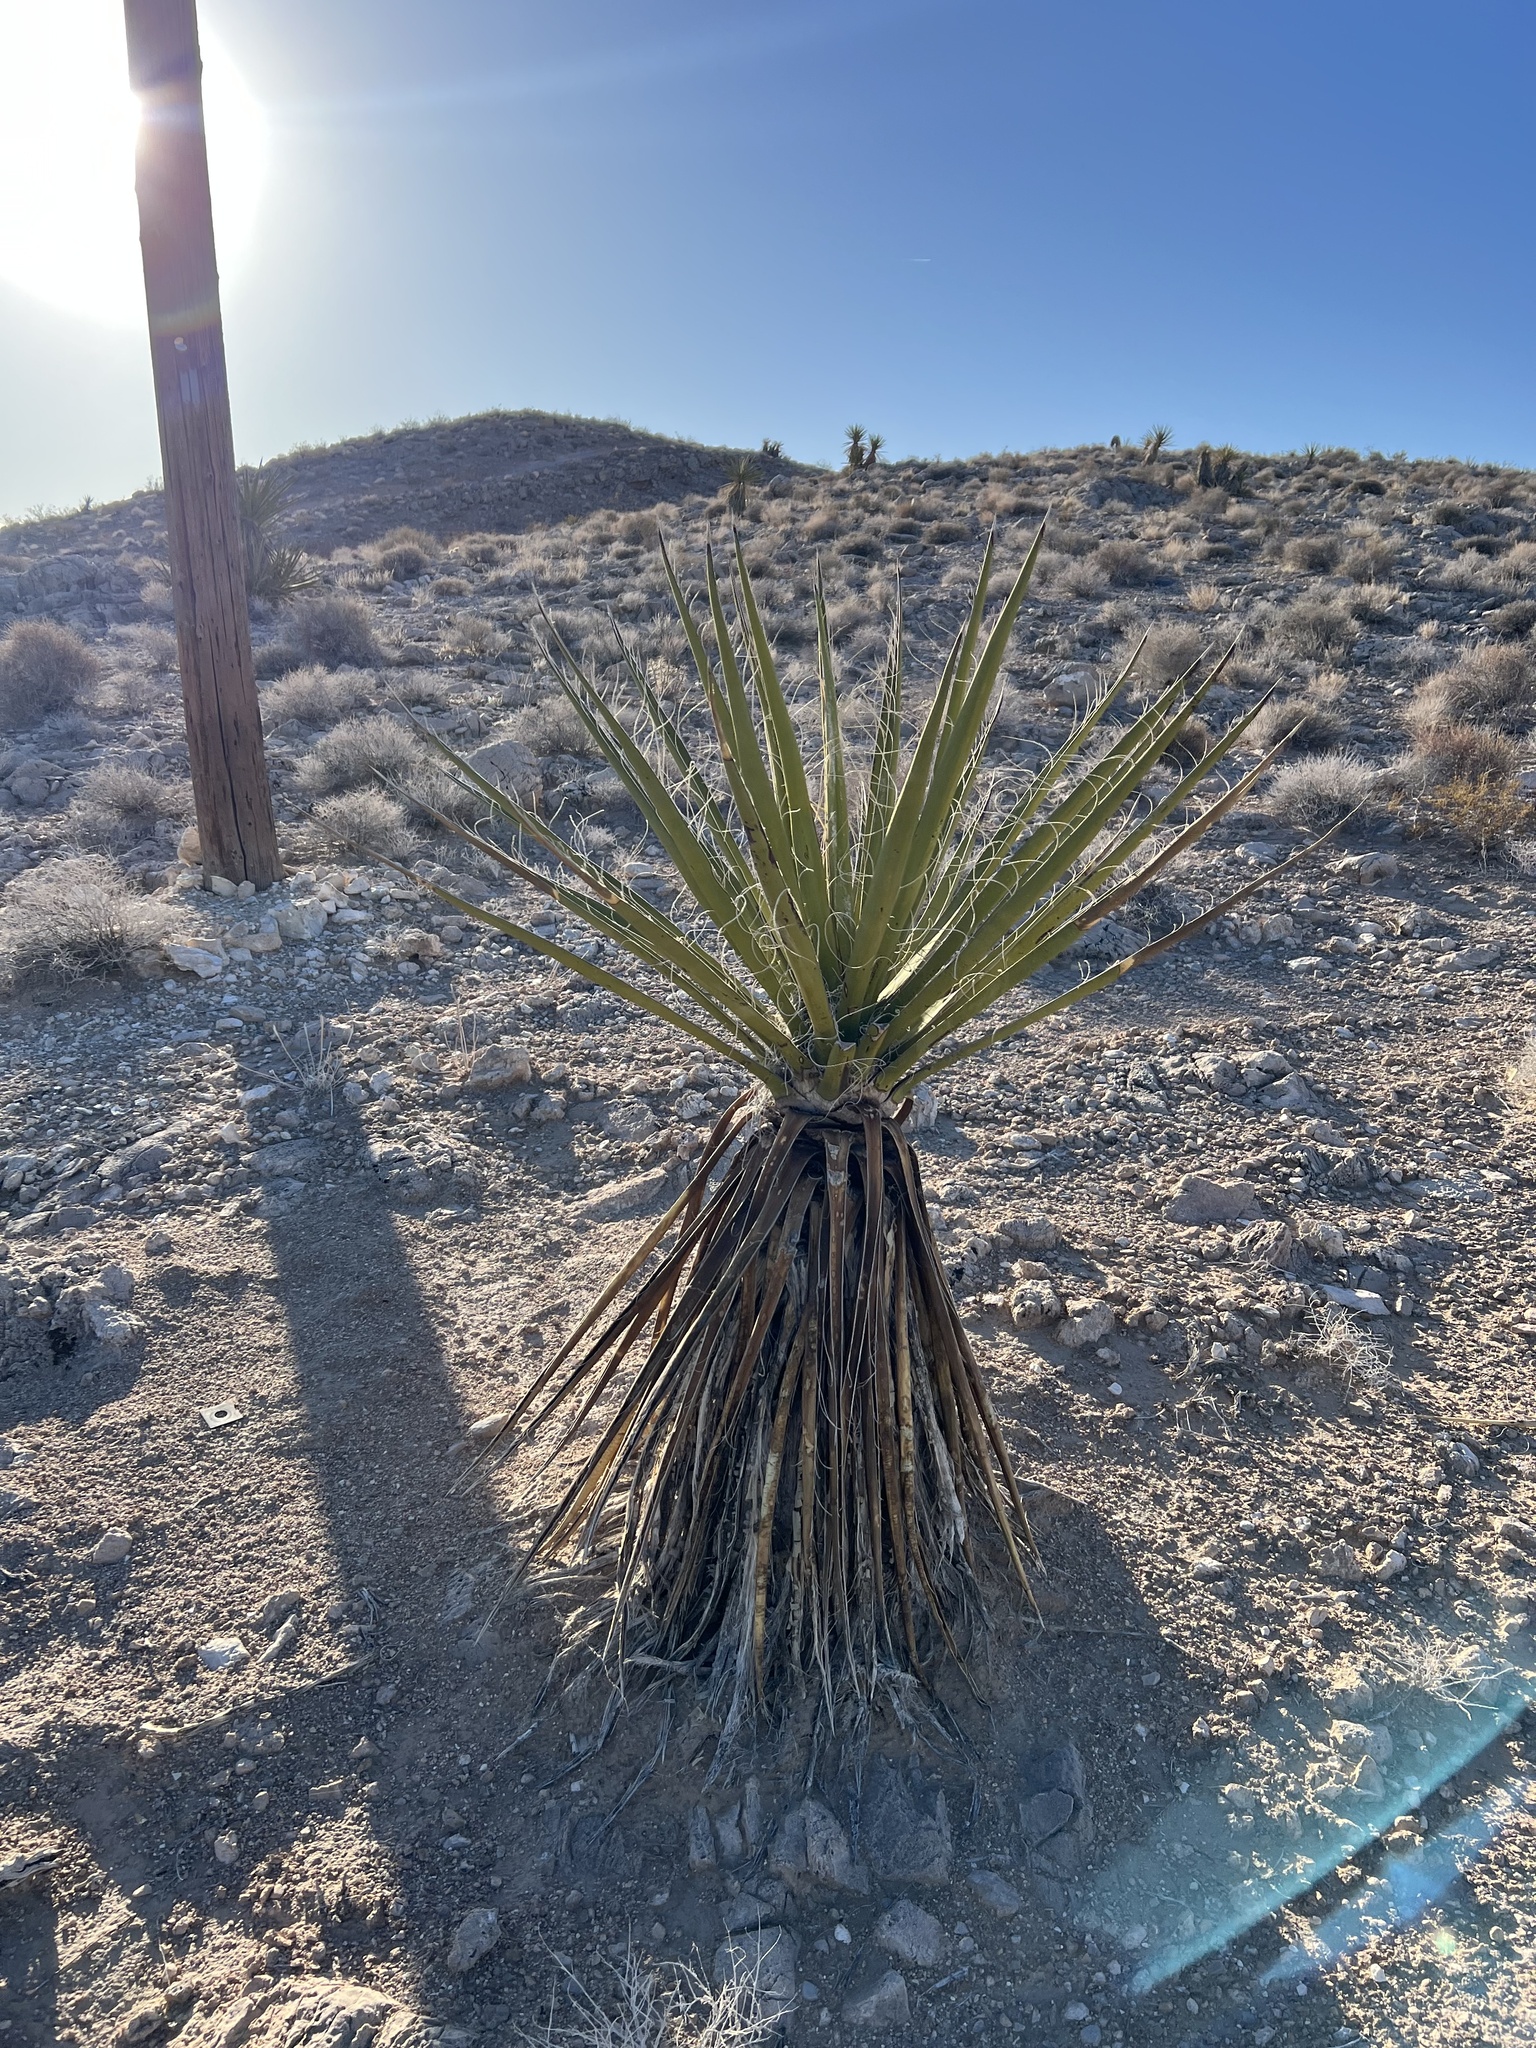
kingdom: Plantae
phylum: Tracheophyta
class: Liliopsida
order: Asparagales
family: Asparagaceae
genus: Yucca
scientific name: Yucca schidigera
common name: Mojave yucca
